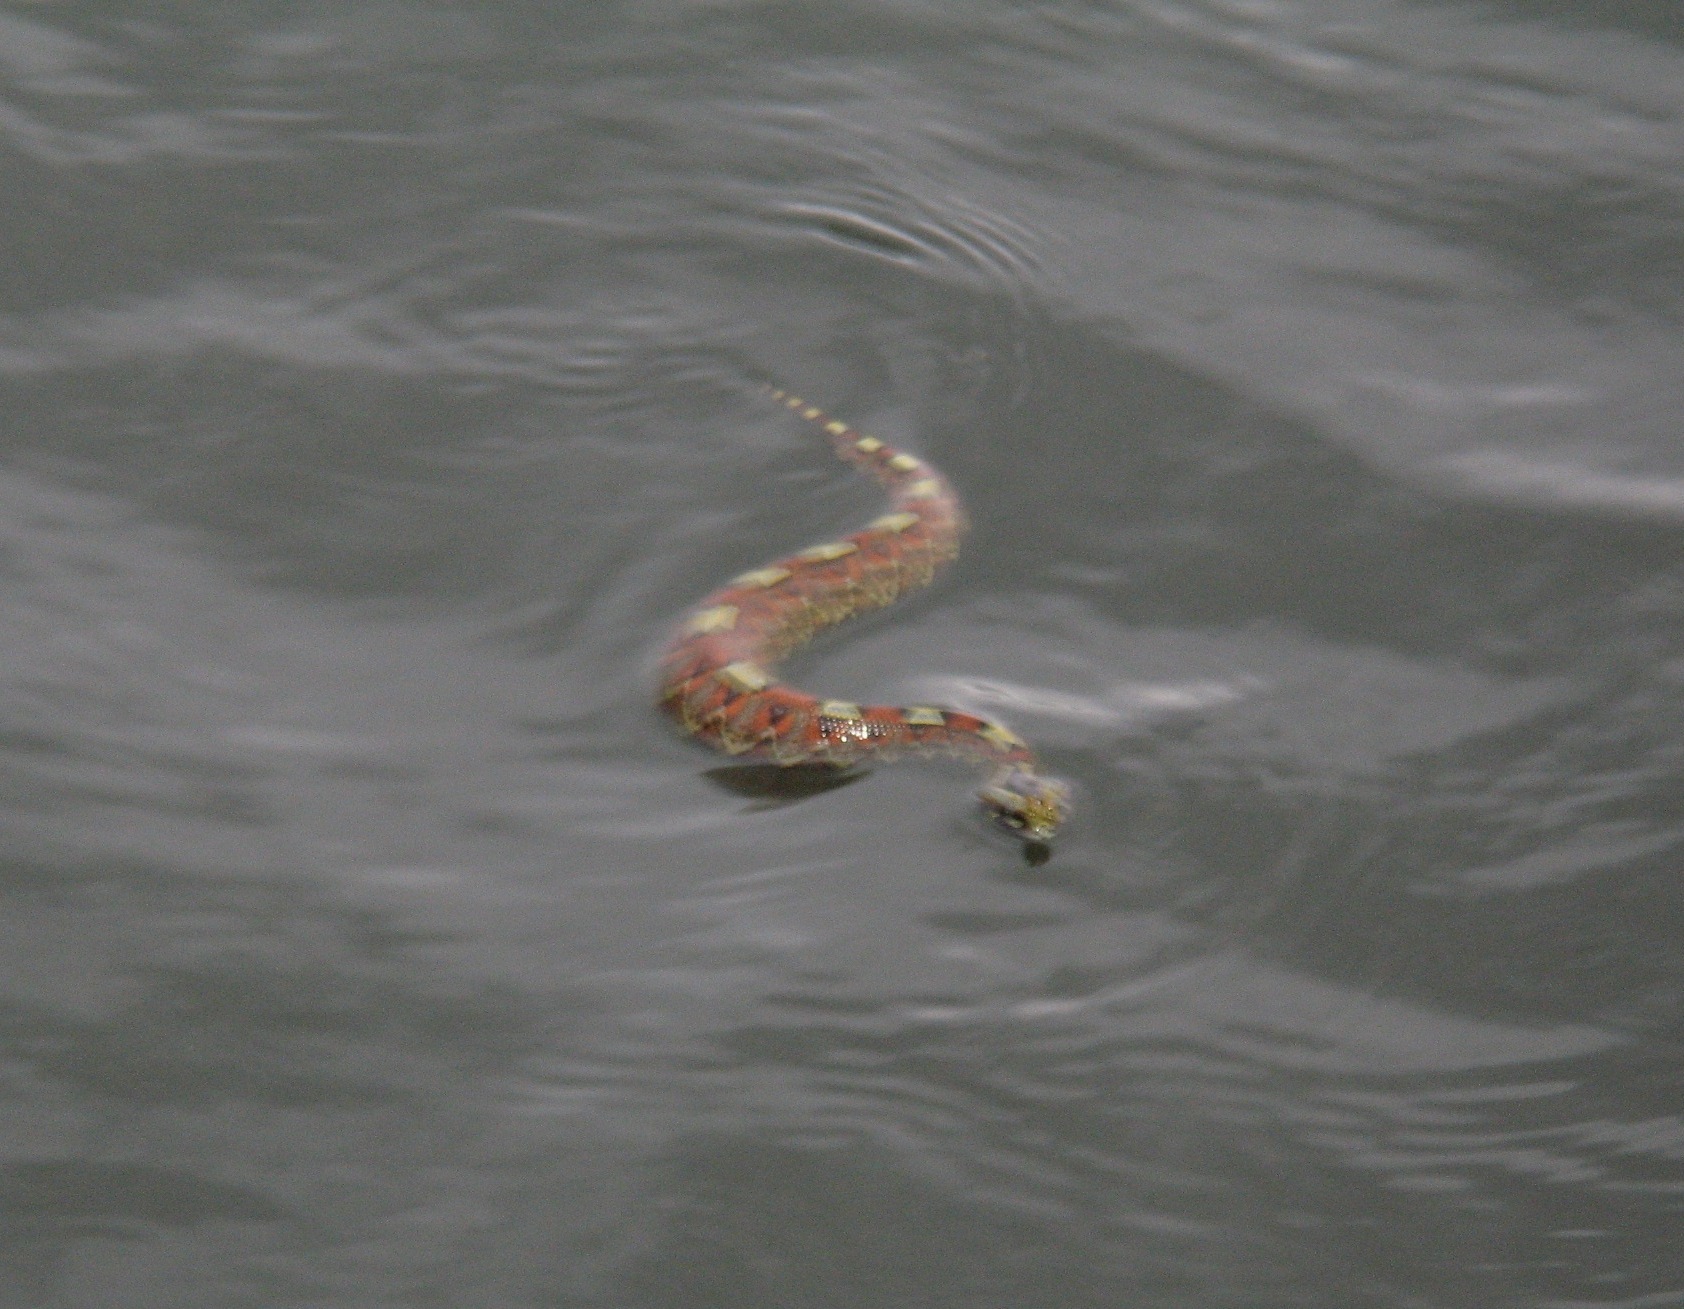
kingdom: Animalia
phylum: Chordata
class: Squamata
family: Viperidae
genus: Bitis
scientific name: Bitis nasicornis
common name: Rhinoceros viper
